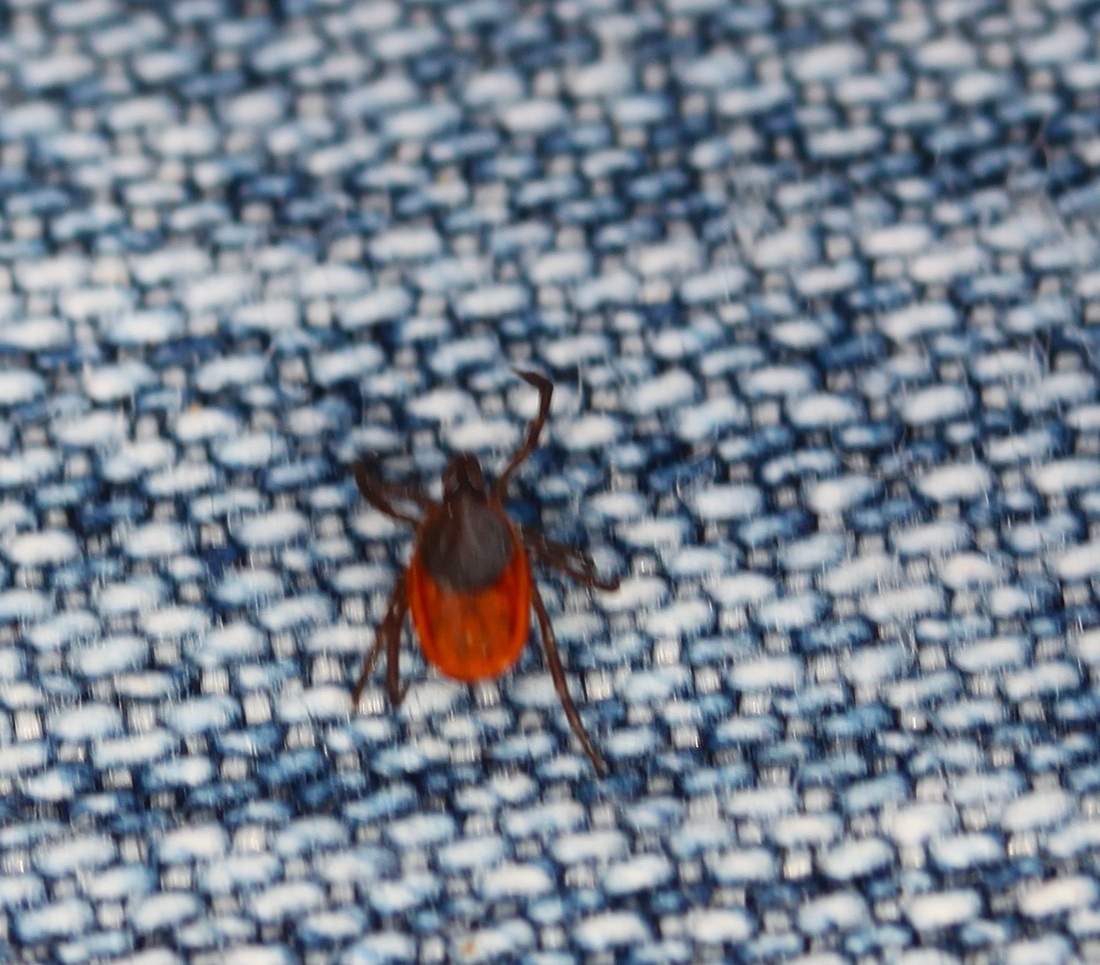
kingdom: Animalia
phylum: Arthropoda
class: Arachnida
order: Ixodida
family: Ixodidae
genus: Ixodes
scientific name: Ixodes scapularis
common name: Black legged tick
